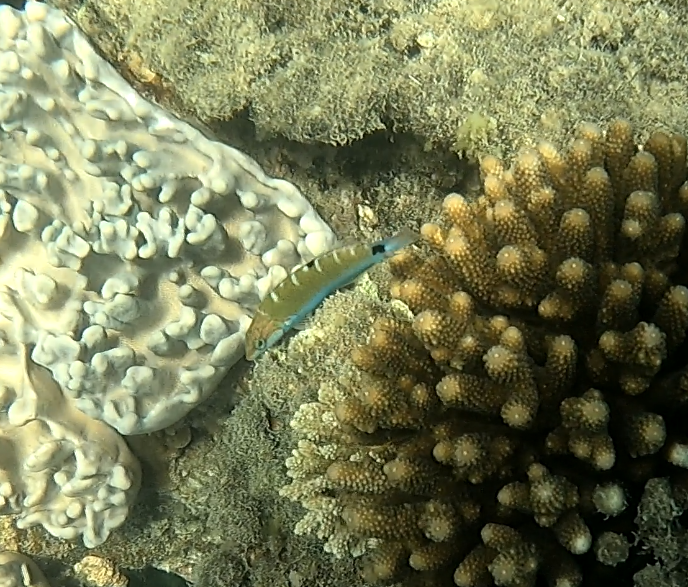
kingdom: Animalia
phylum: Chordata
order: Perciformes
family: Labridae
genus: Thalassoma
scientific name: Thalassoma lunare
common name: Blue wrasse
